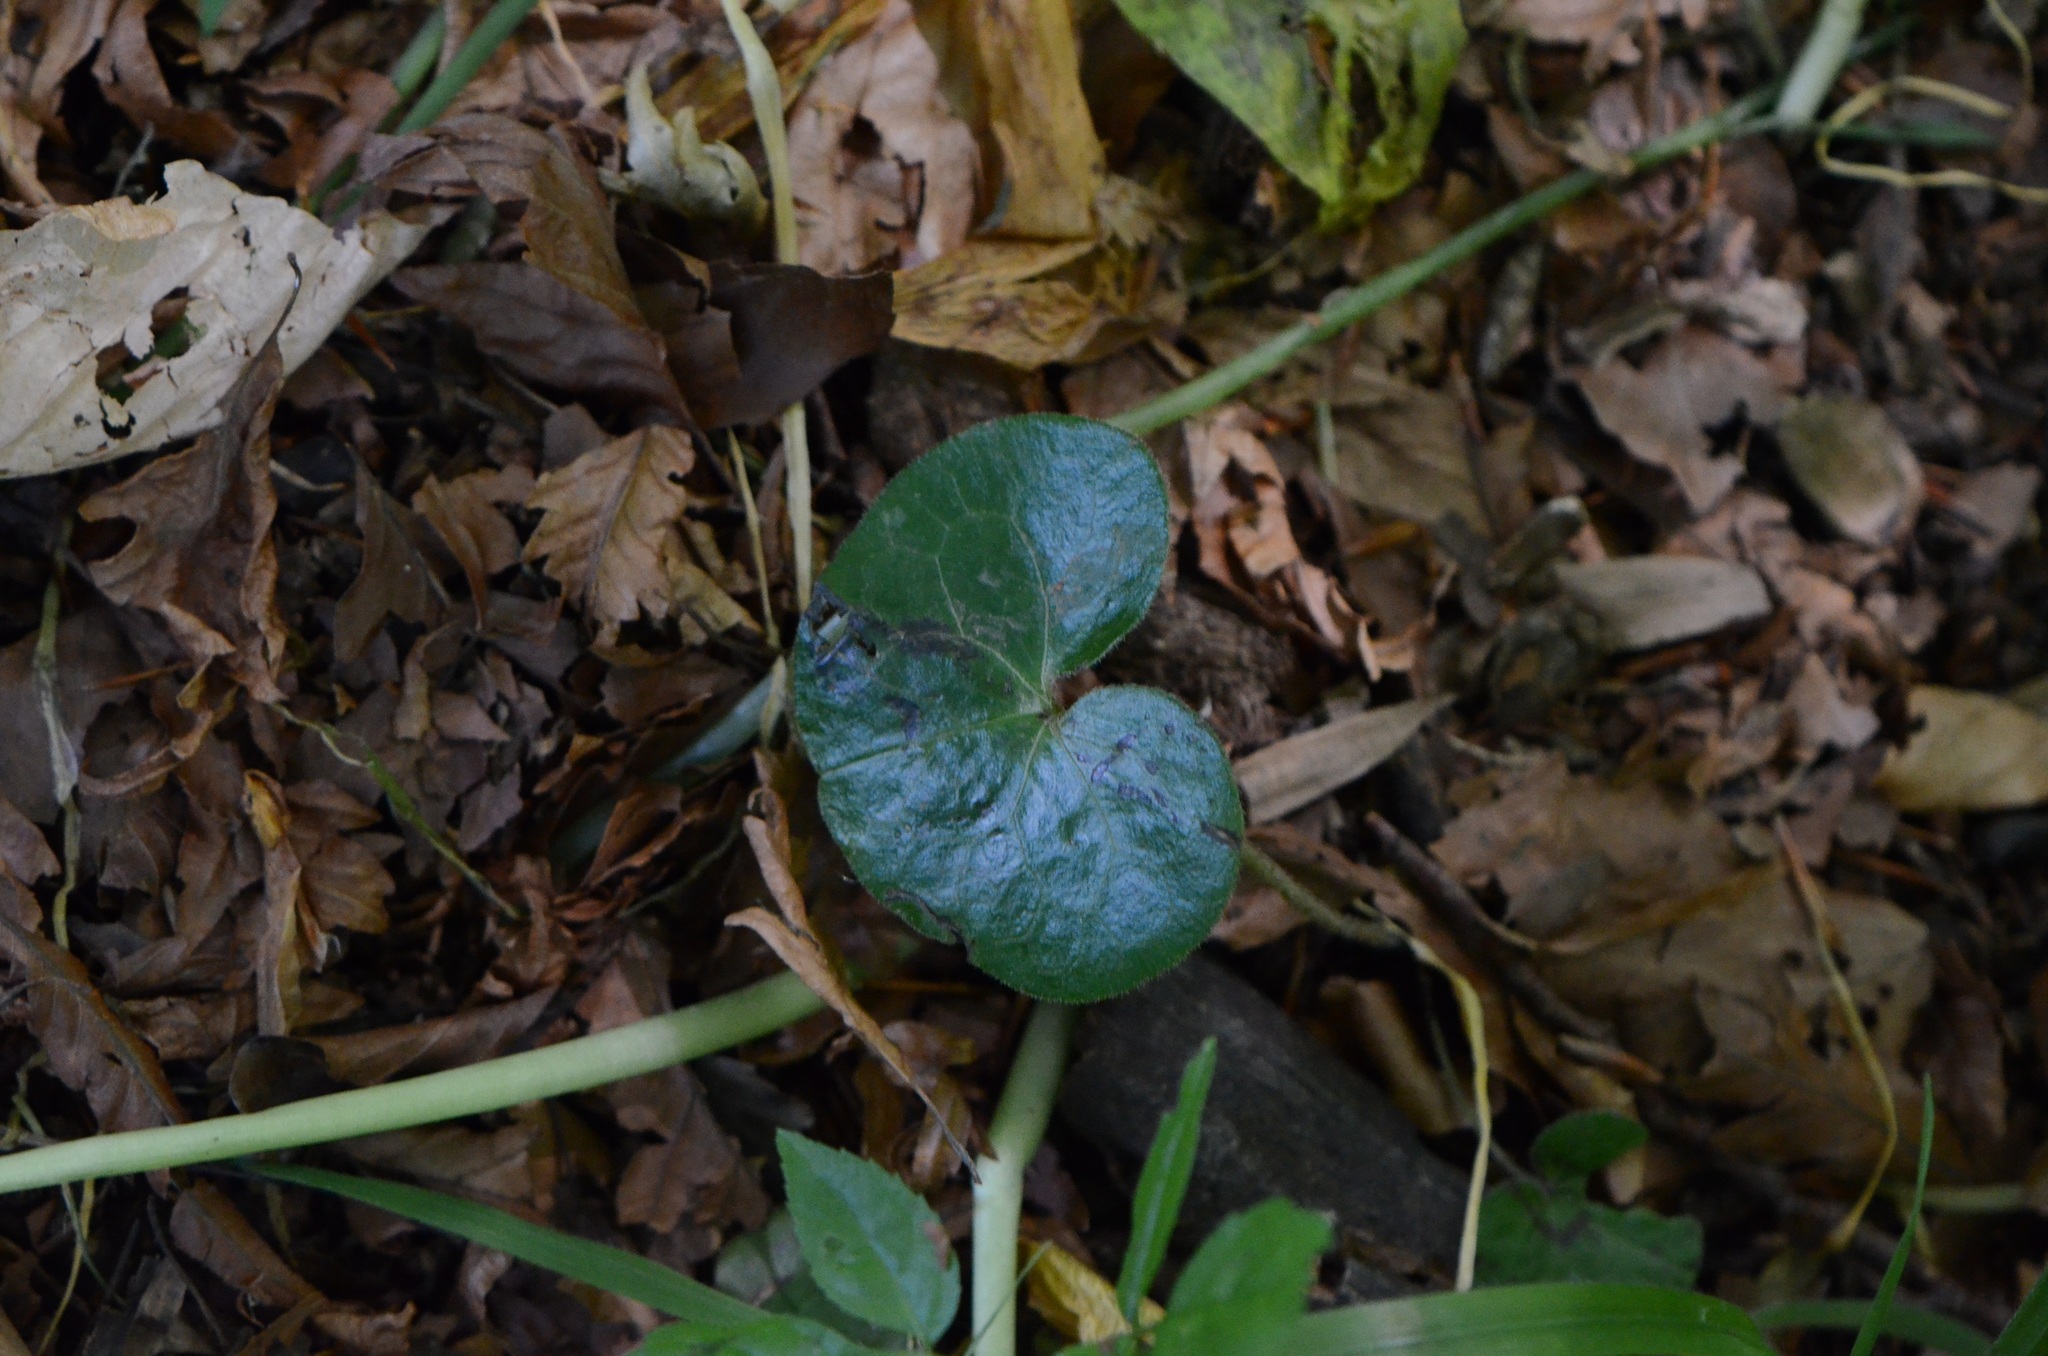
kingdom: Plantae
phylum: Tracheophyta
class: Magnoliopsida
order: Piperales
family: Aristolochiaceae
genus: Asarum
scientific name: Asarum europaeum
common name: Asarabacca
